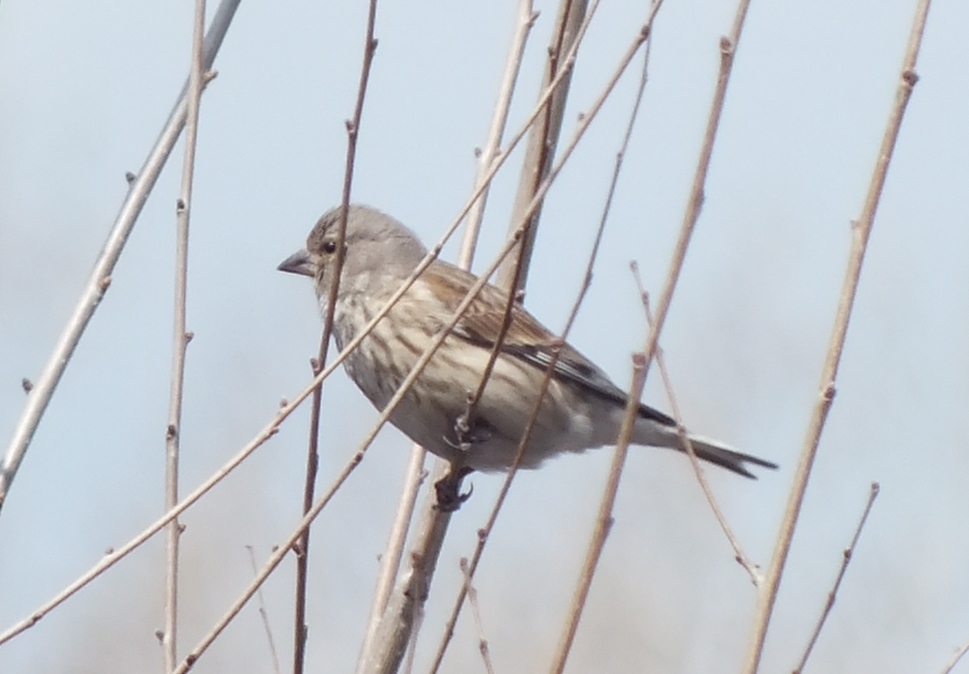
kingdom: Animalia
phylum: Chordata
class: Aves
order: Passeriformes
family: Fringillidae
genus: Linaria
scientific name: Linaria cannabina
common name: Common linnet
